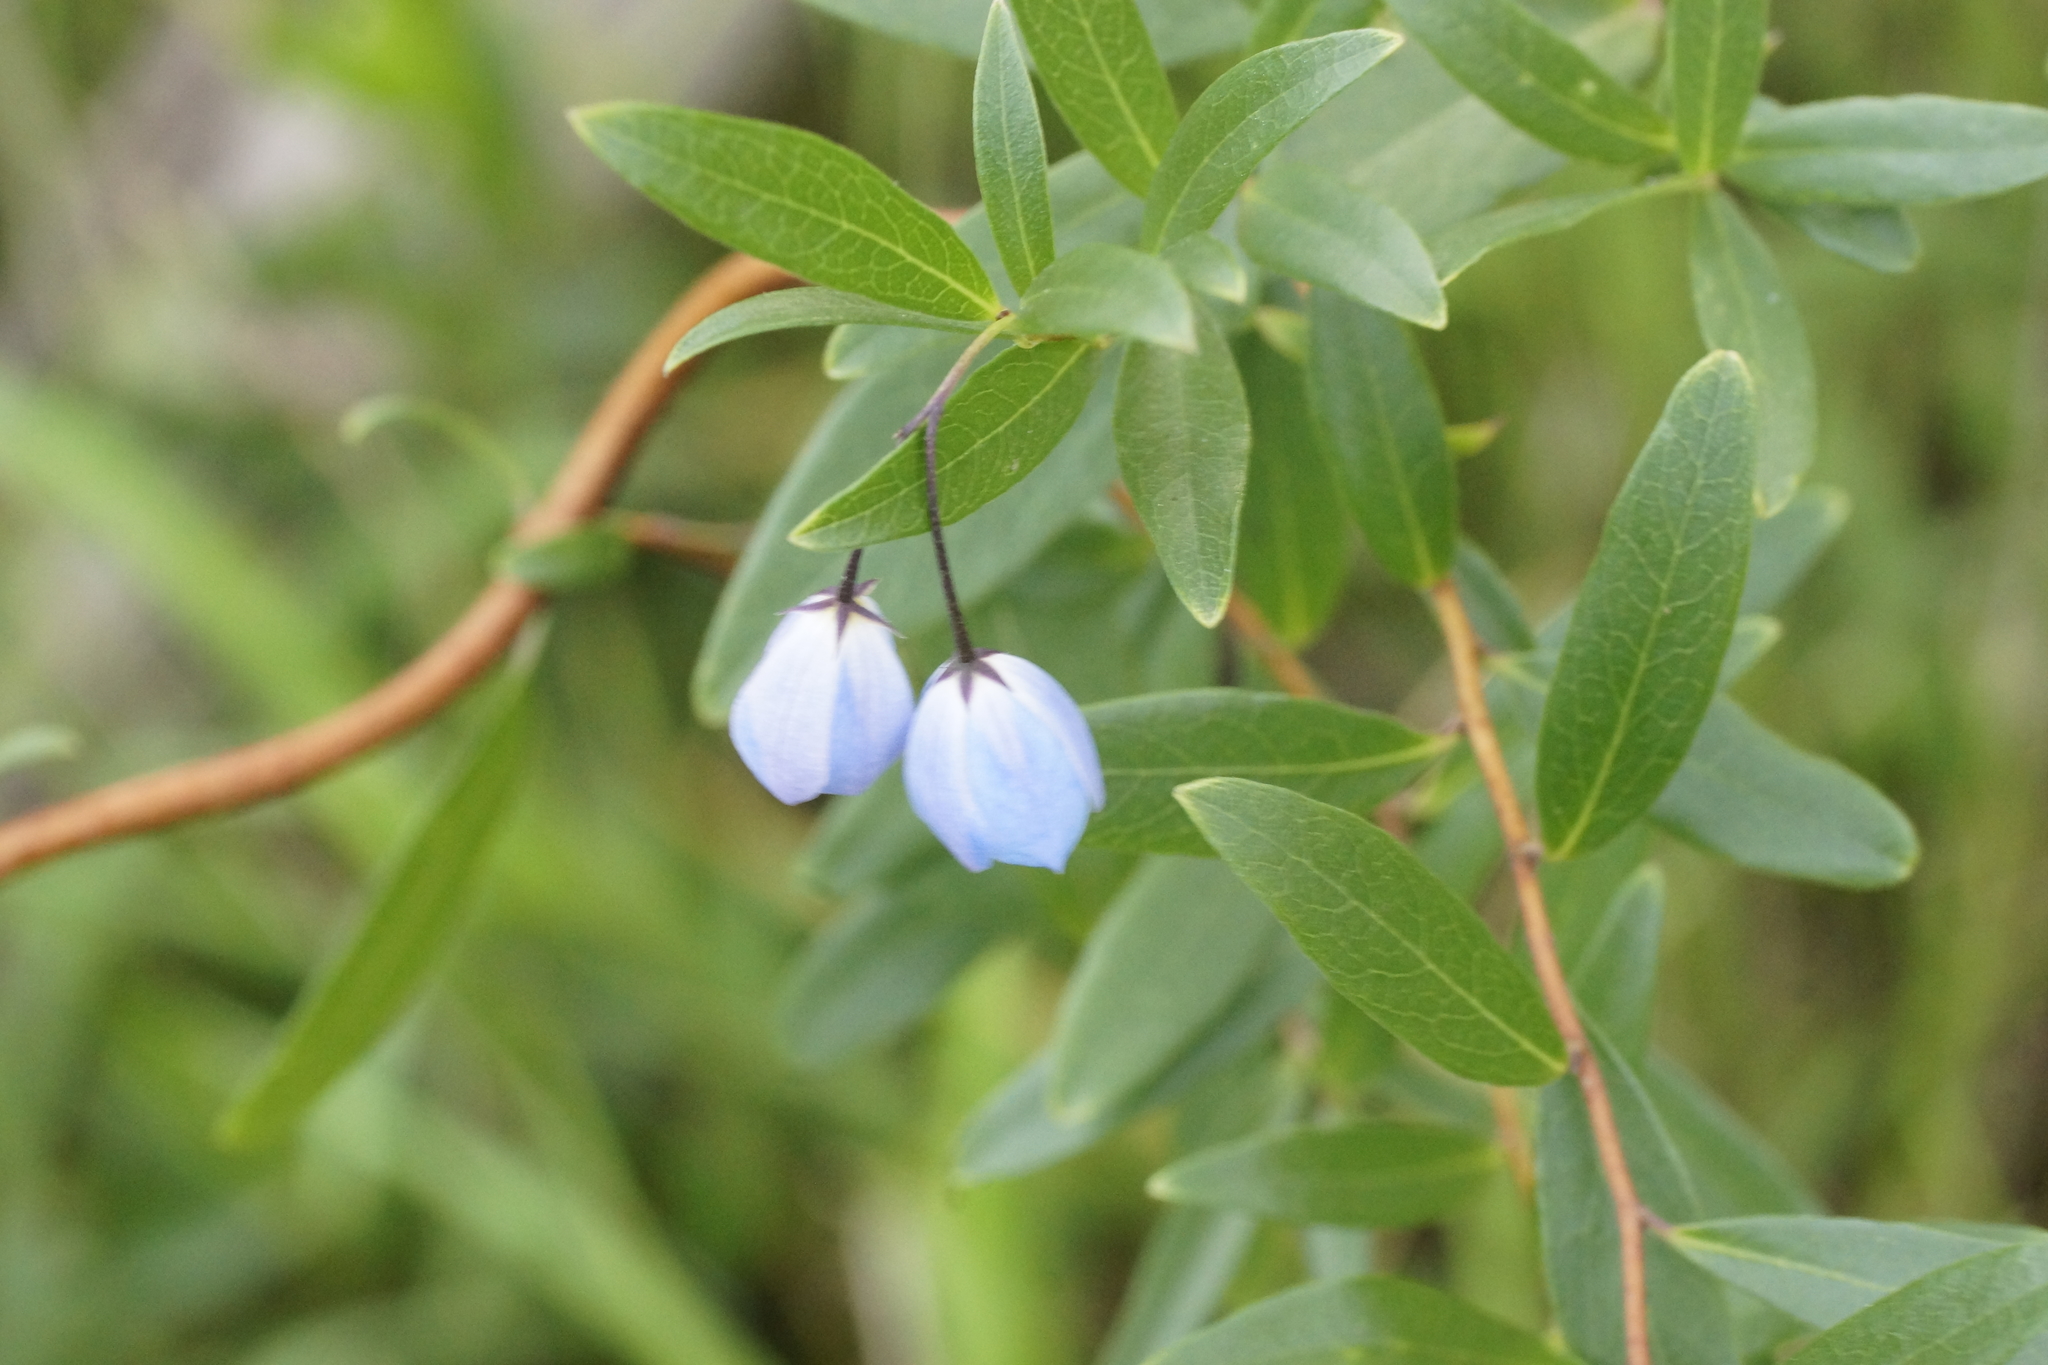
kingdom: Plantae
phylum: Tracheophyta
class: Magnoliopsida
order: Apiales
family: Pittosporaceae
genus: Billardiera
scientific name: Billardiera fusiformis
